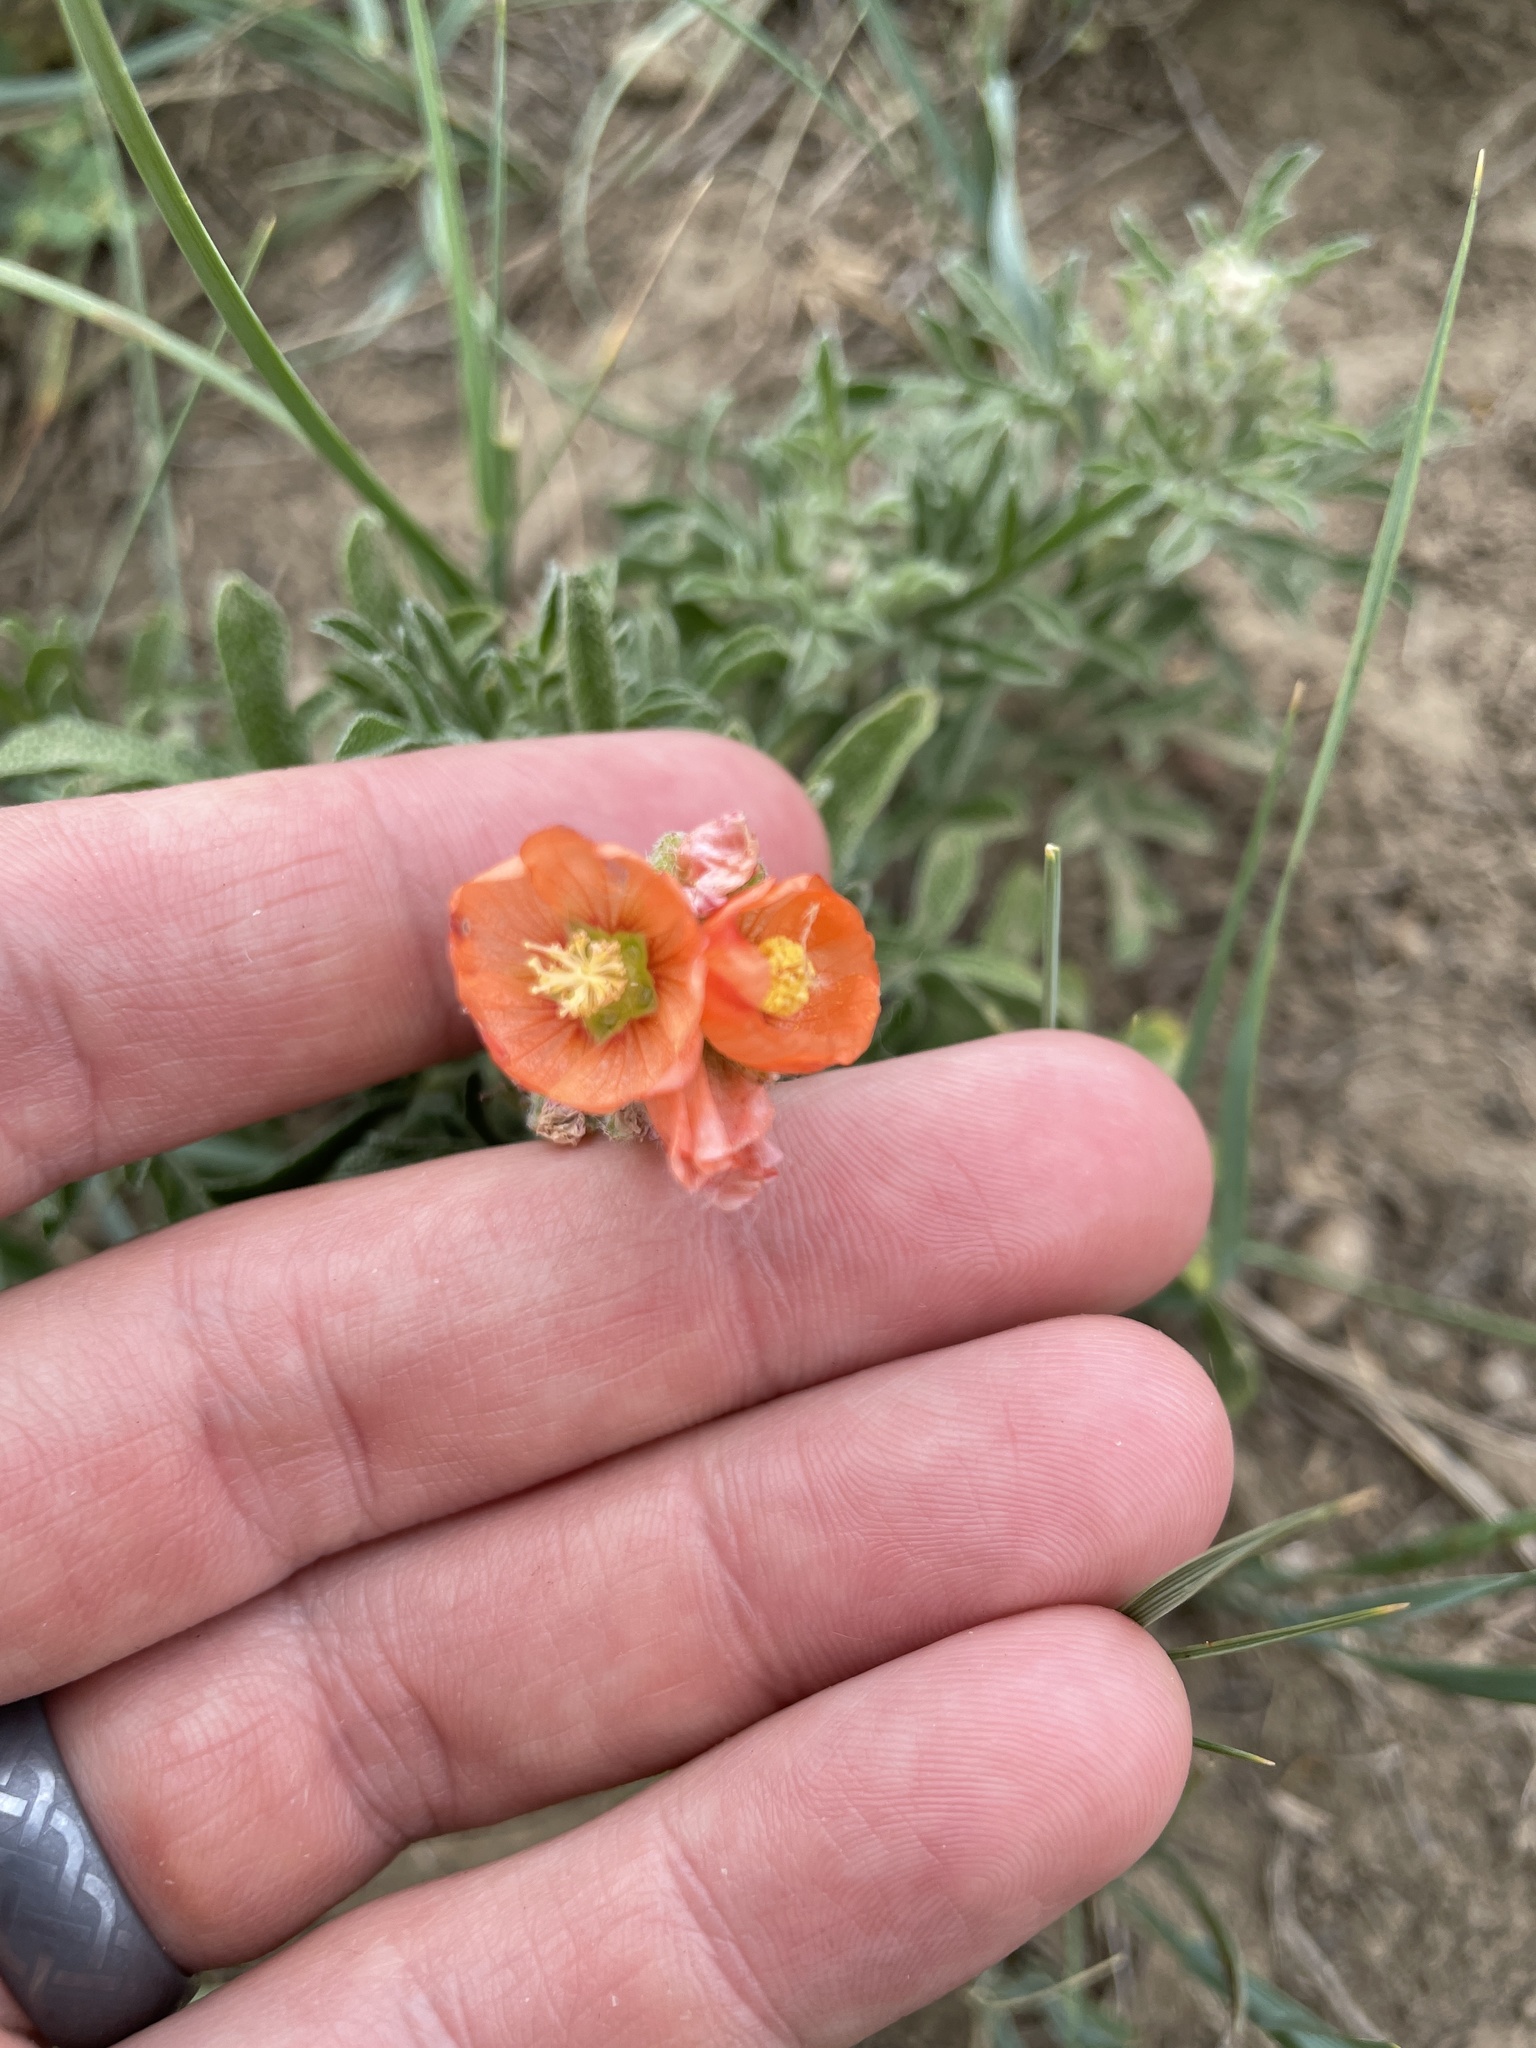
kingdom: Plantae
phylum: Tracheophyta
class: Magnoliopsida
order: Malvales
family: Malvaceae
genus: Sphaeralcea
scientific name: Sphaeralcea coccinea
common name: Moss-rose
